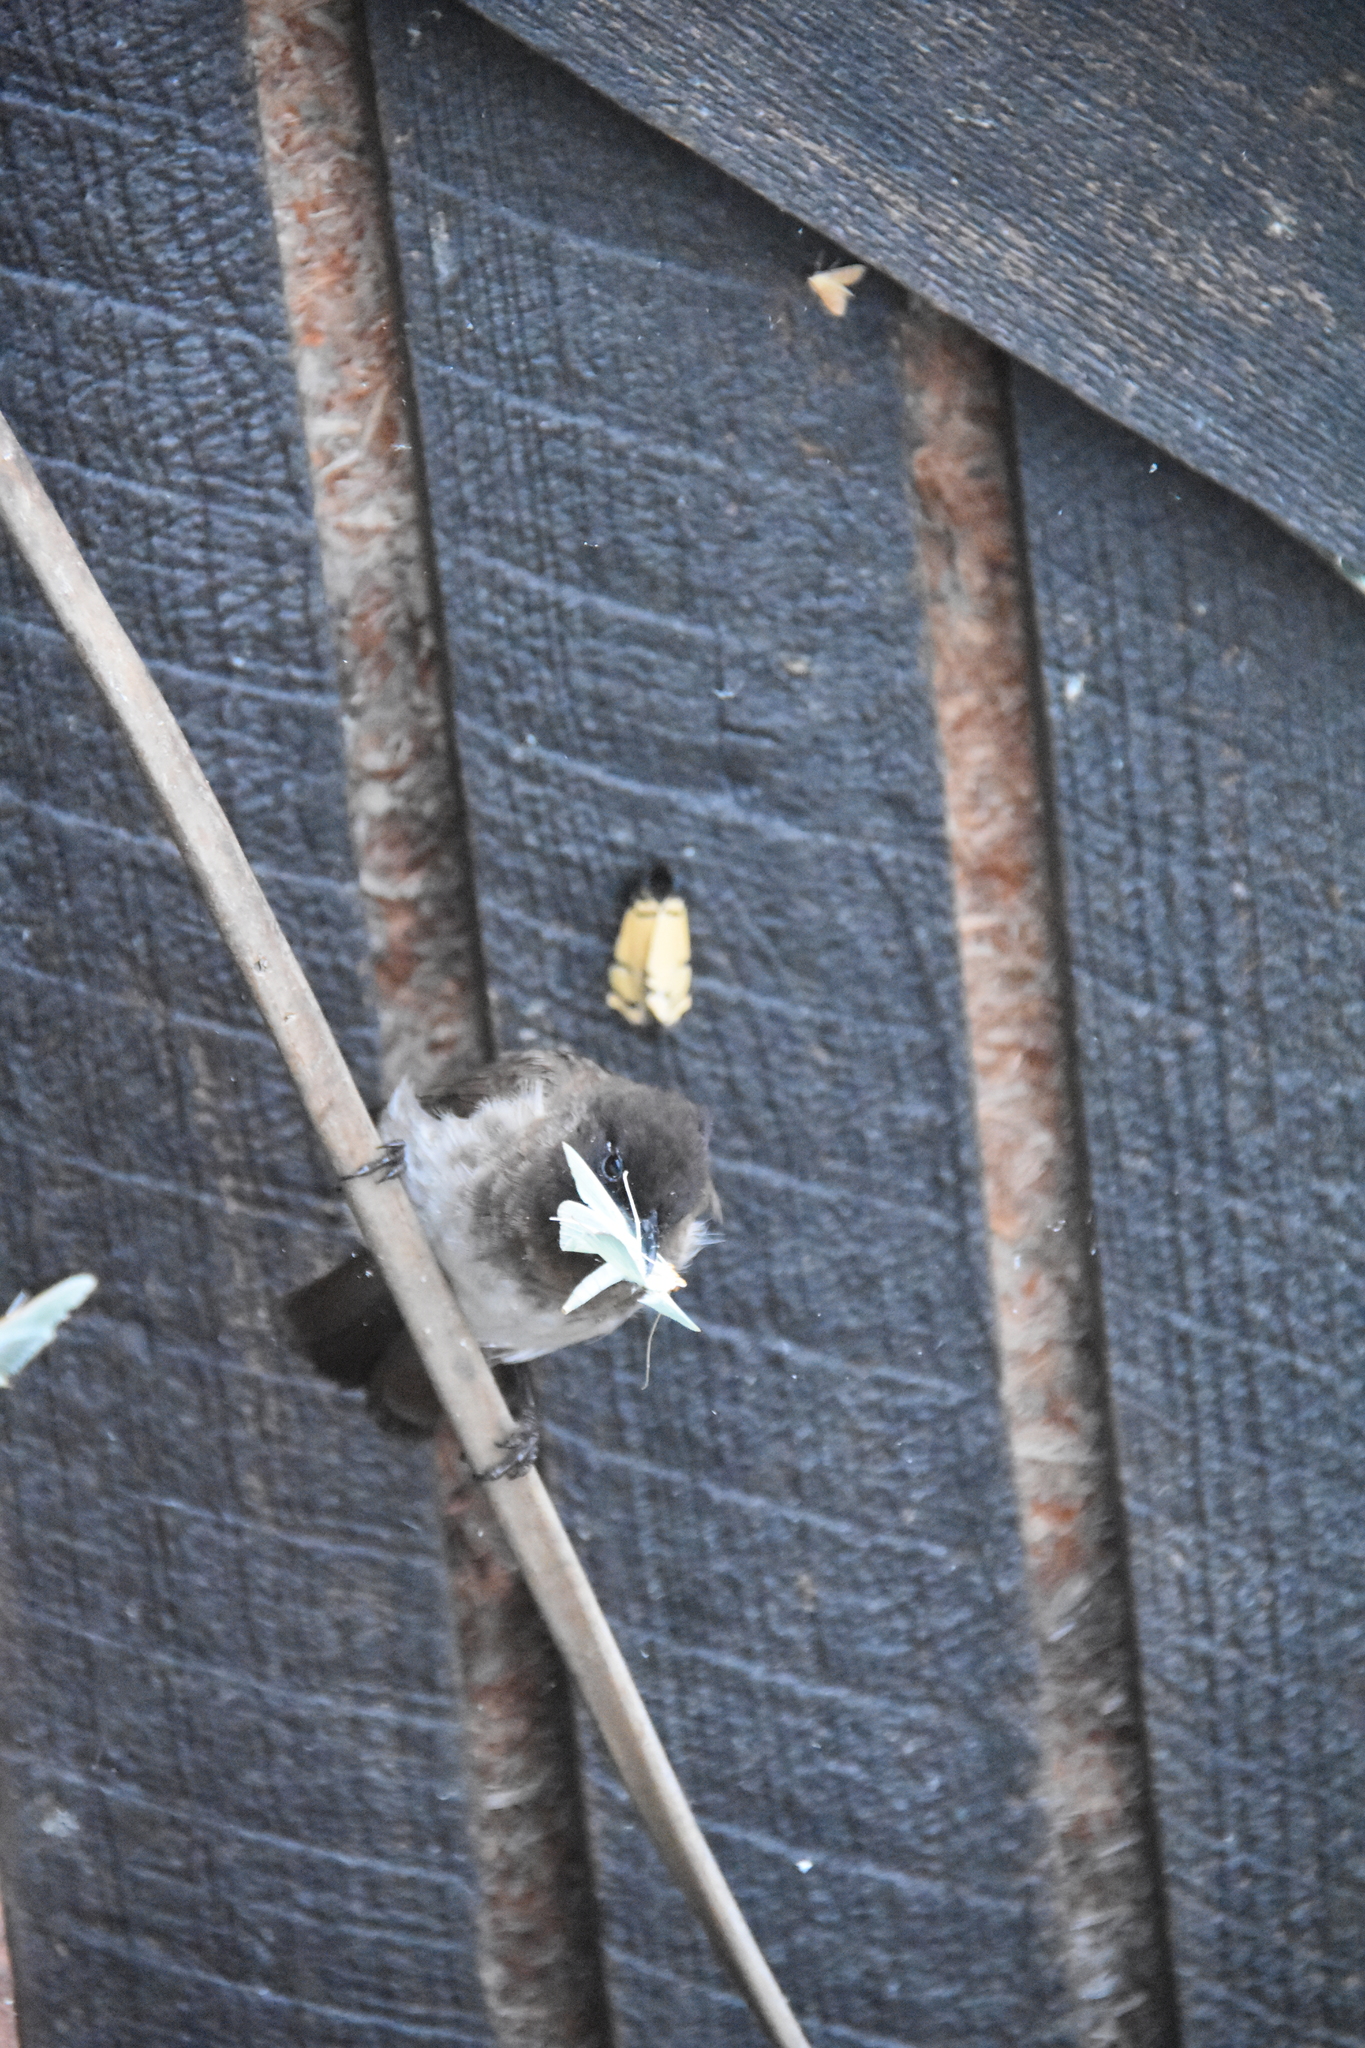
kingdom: Animalia
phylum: Chordata
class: Aves
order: Passeriformes
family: Pycnonotidae
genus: Pycnonotus
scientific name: Pycnonotus barbatus
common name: Common bulbul
